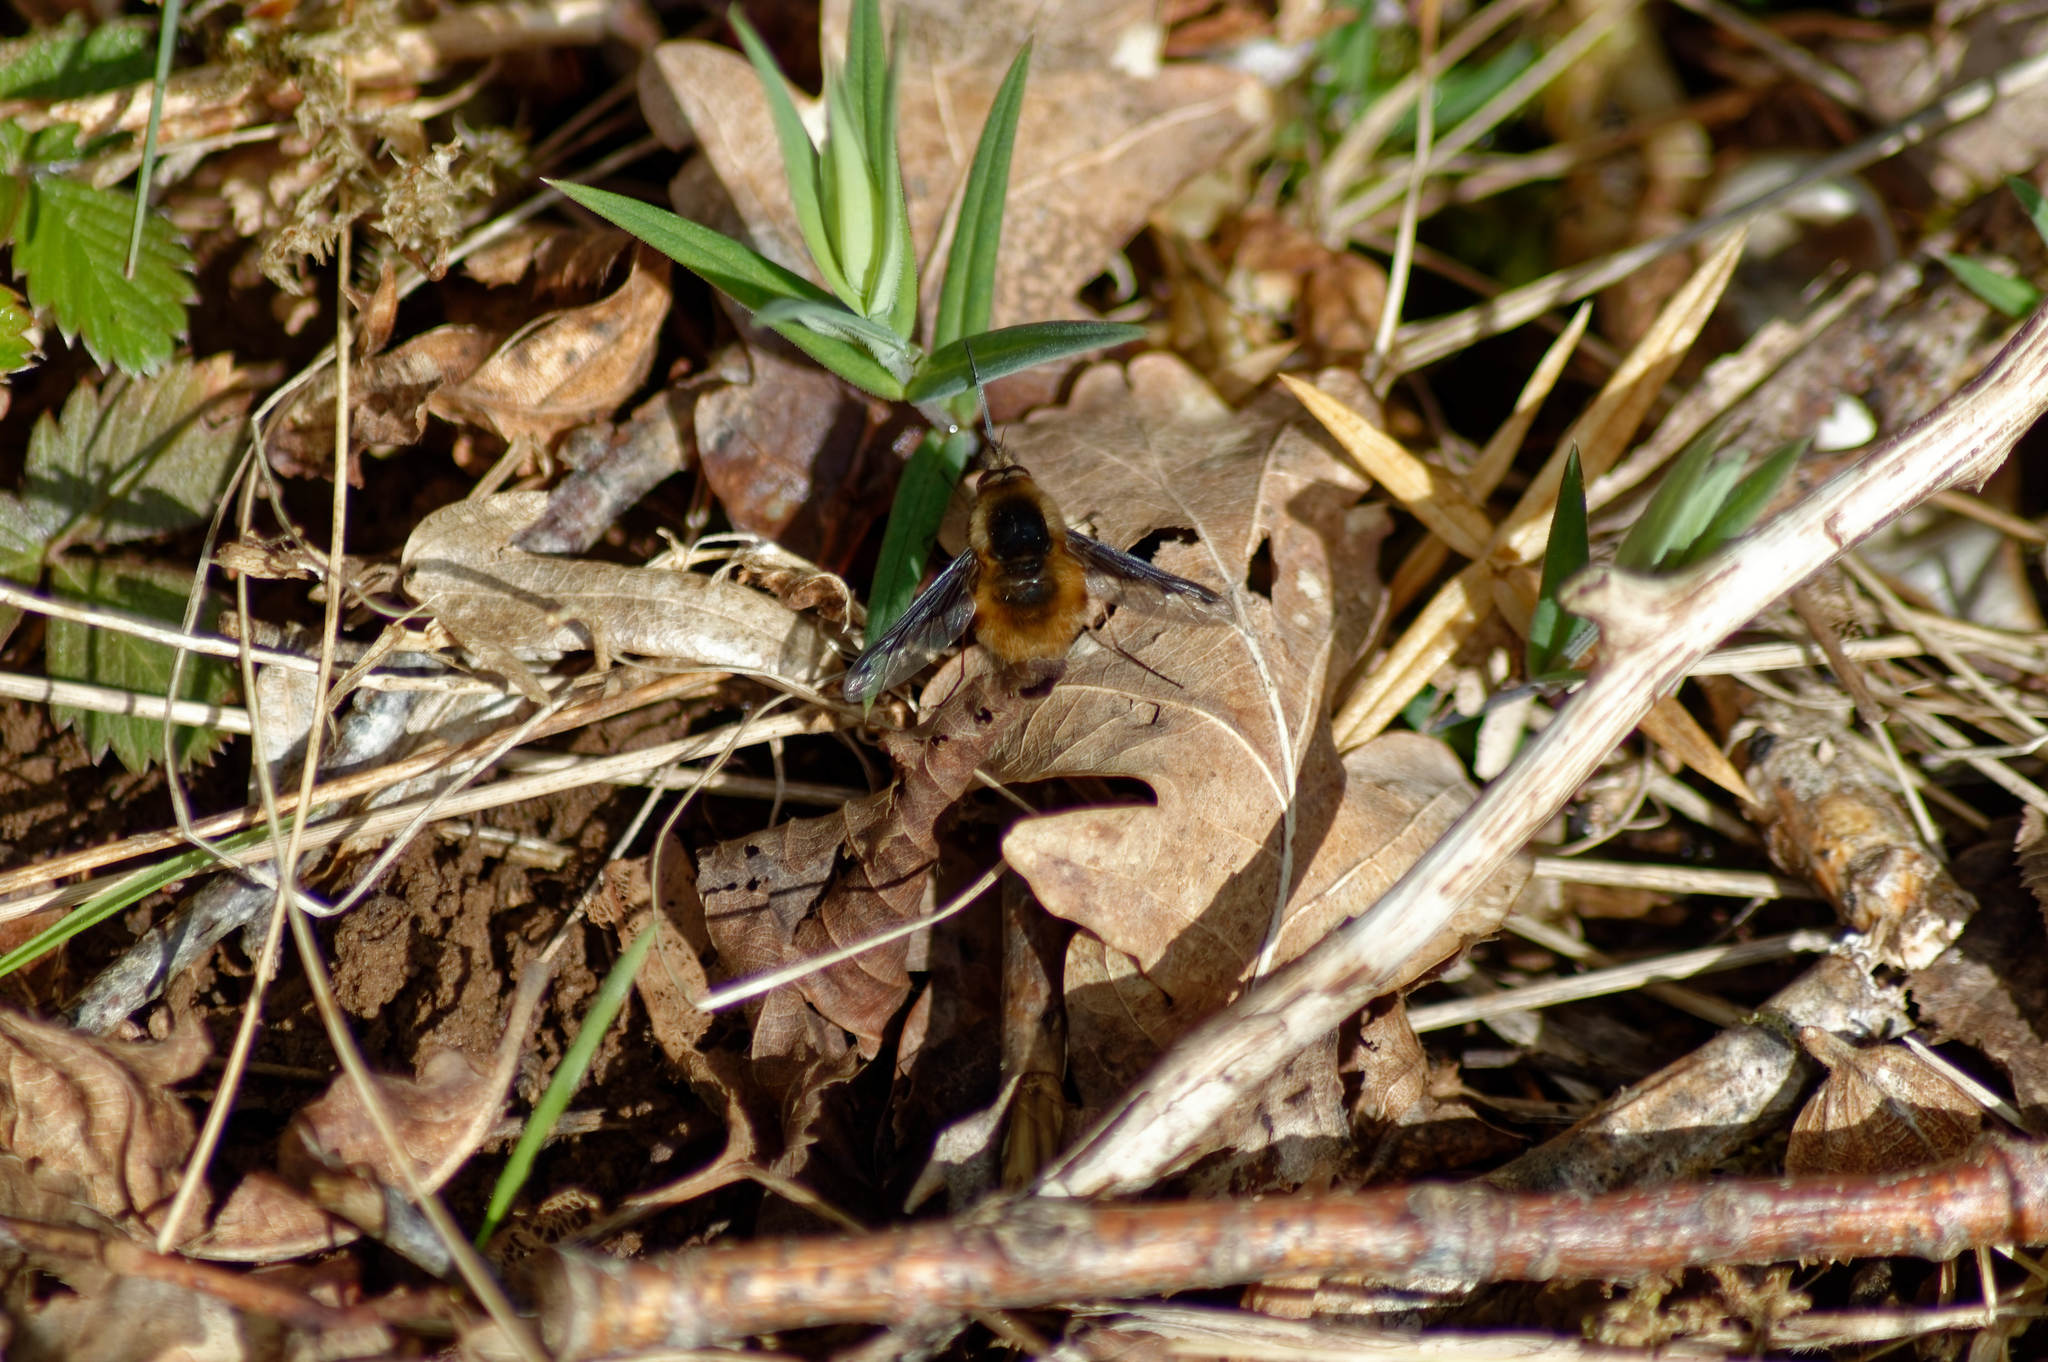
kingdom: Animalia
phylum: Arthropoda
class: Insecta
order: Diptera
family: Bombyliidae
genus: Bombylius
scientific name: Bombylius major
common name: Bee fly
